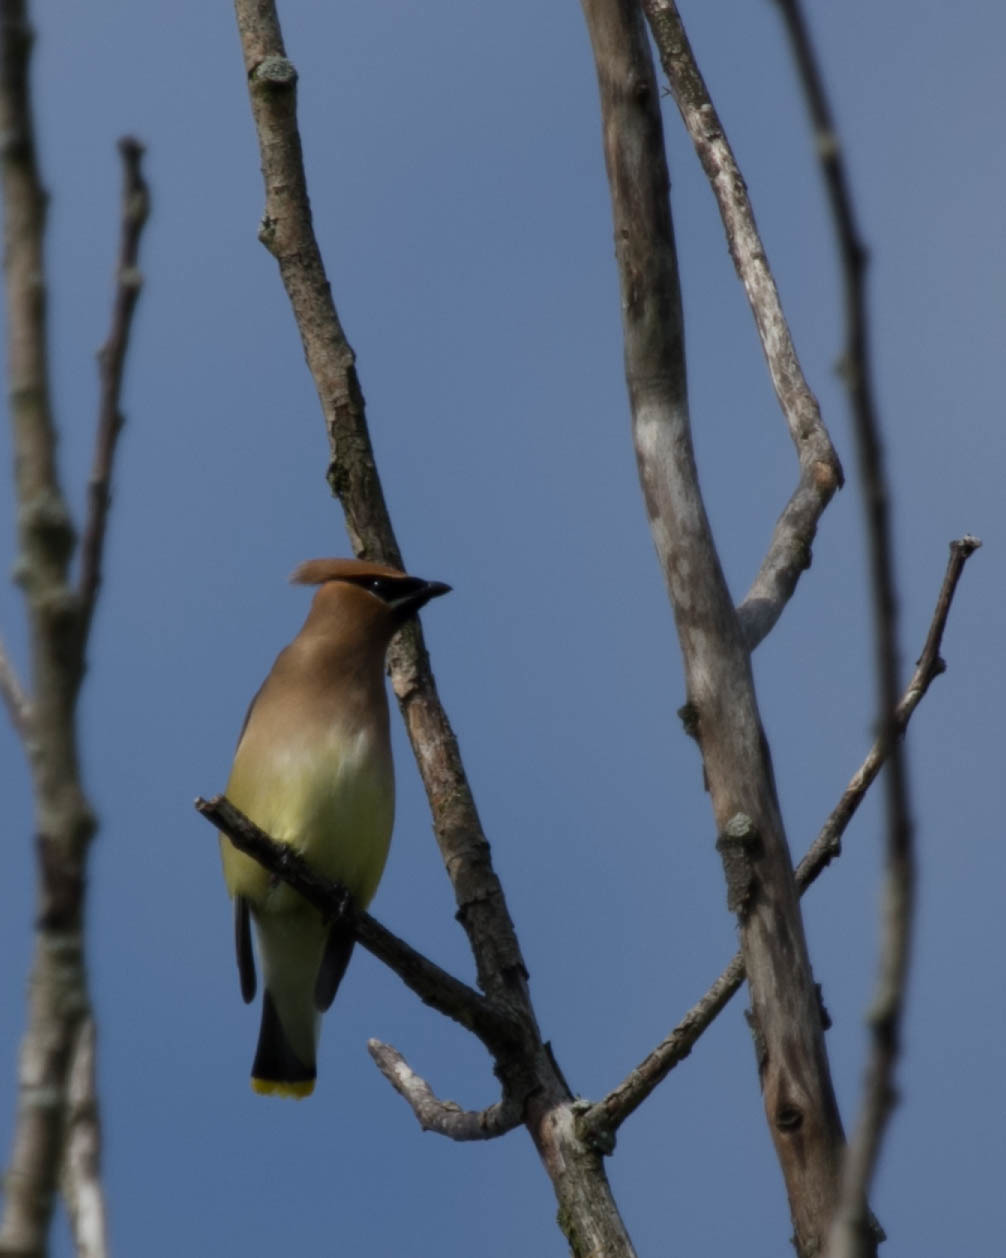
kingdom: Animalia
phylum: Chordata
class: Aves
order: Passeriformes
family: Bombycillidae
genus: Bombycilla
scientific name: Bombycilla cedrorum
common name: Cedar waxwing
